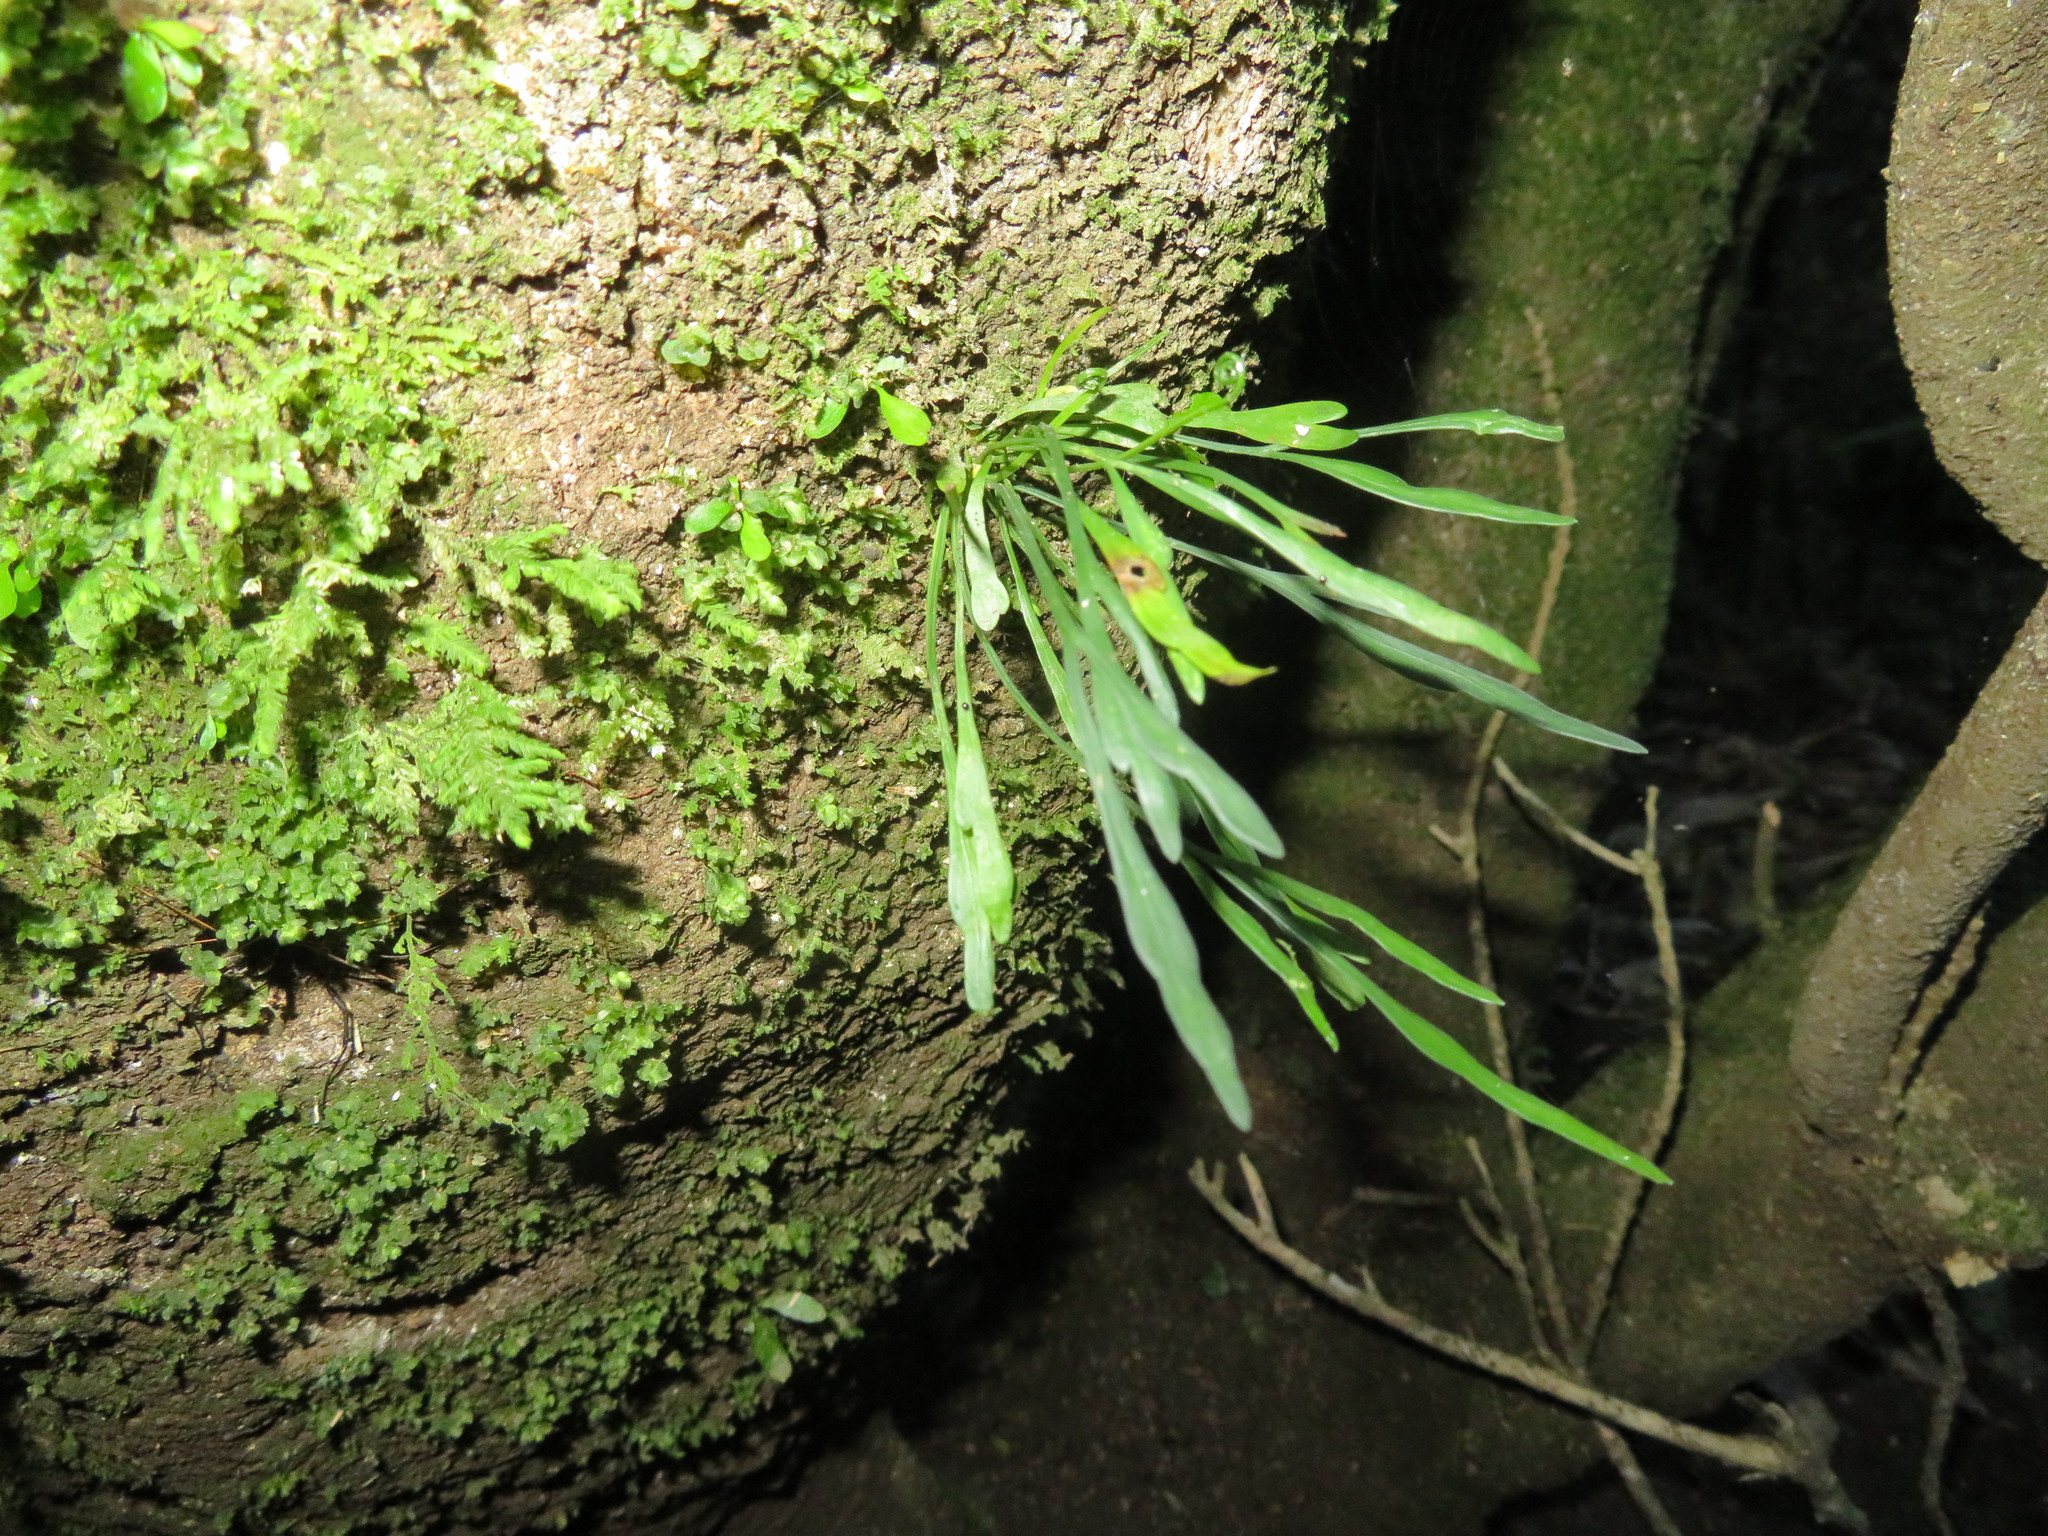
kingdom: Plantae
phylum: Tracheophyta
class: Polypodiopsida
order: Polypodiales
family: Aspleniaceae
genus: Asplenium
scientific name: Asplenium flaccidum
